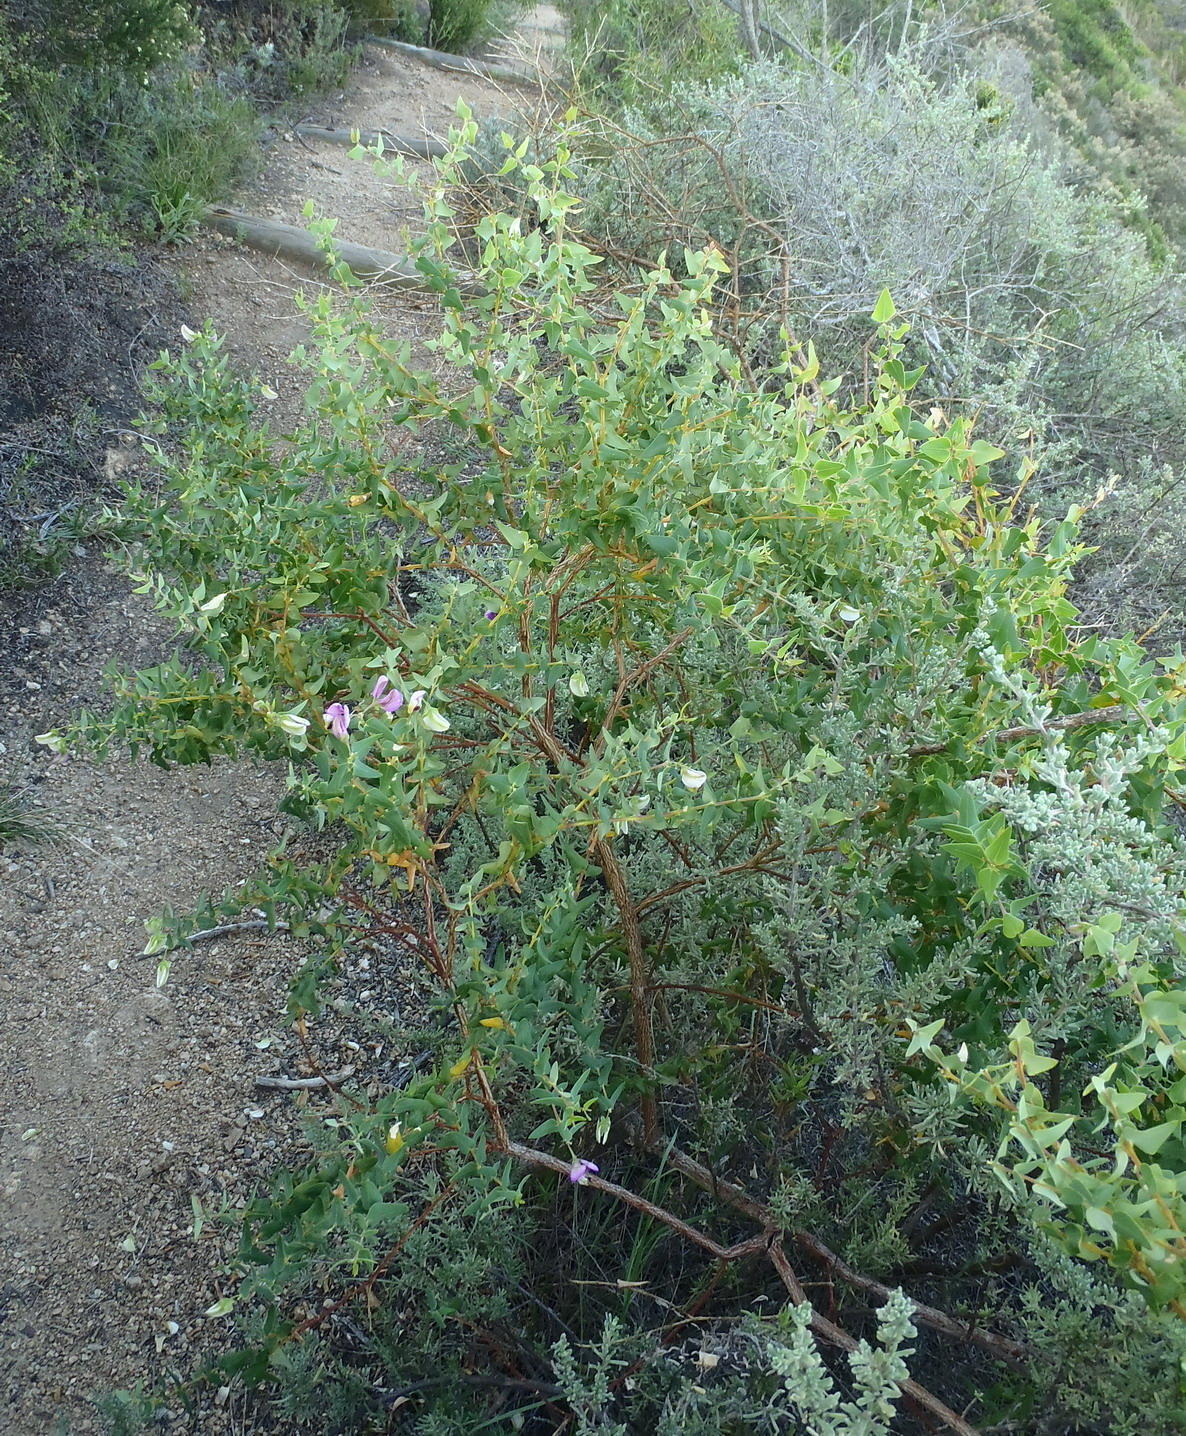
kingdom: Plantae
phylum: Tracheophyta
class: Magnoliopsida
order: Fabales
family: Polygalaceae
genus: Polygala
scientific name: Polygala fruticosa
